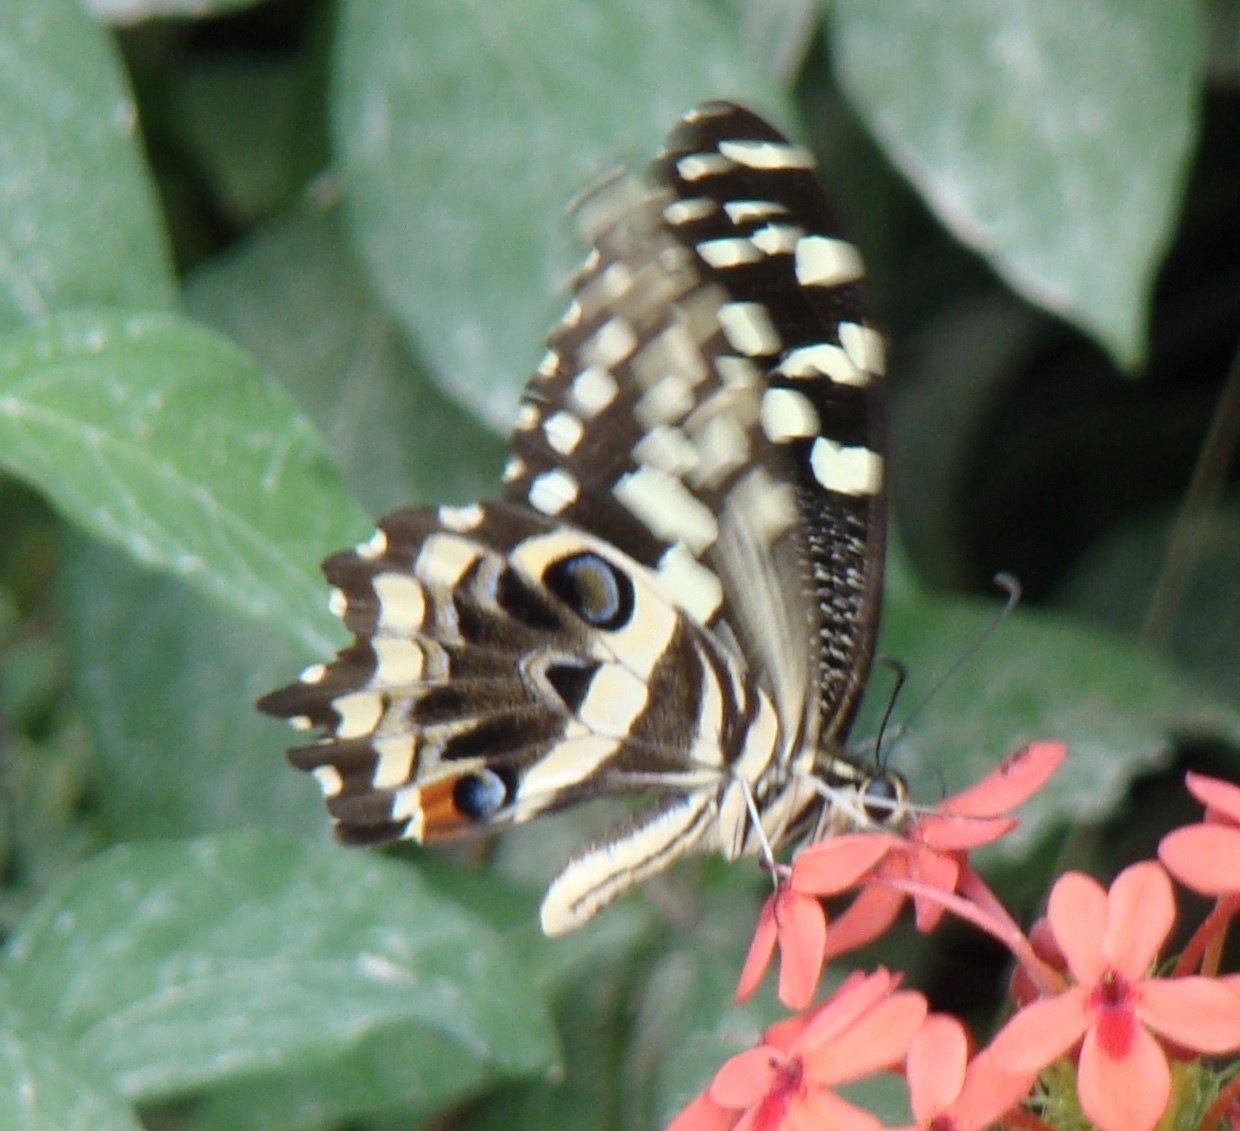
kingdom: Animalia
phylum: Arthropoda
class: Insecta
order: Lepidoptera
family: Papilionidae
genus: Papilio
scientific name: Papilio demodocus
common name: Christmas butterfly
